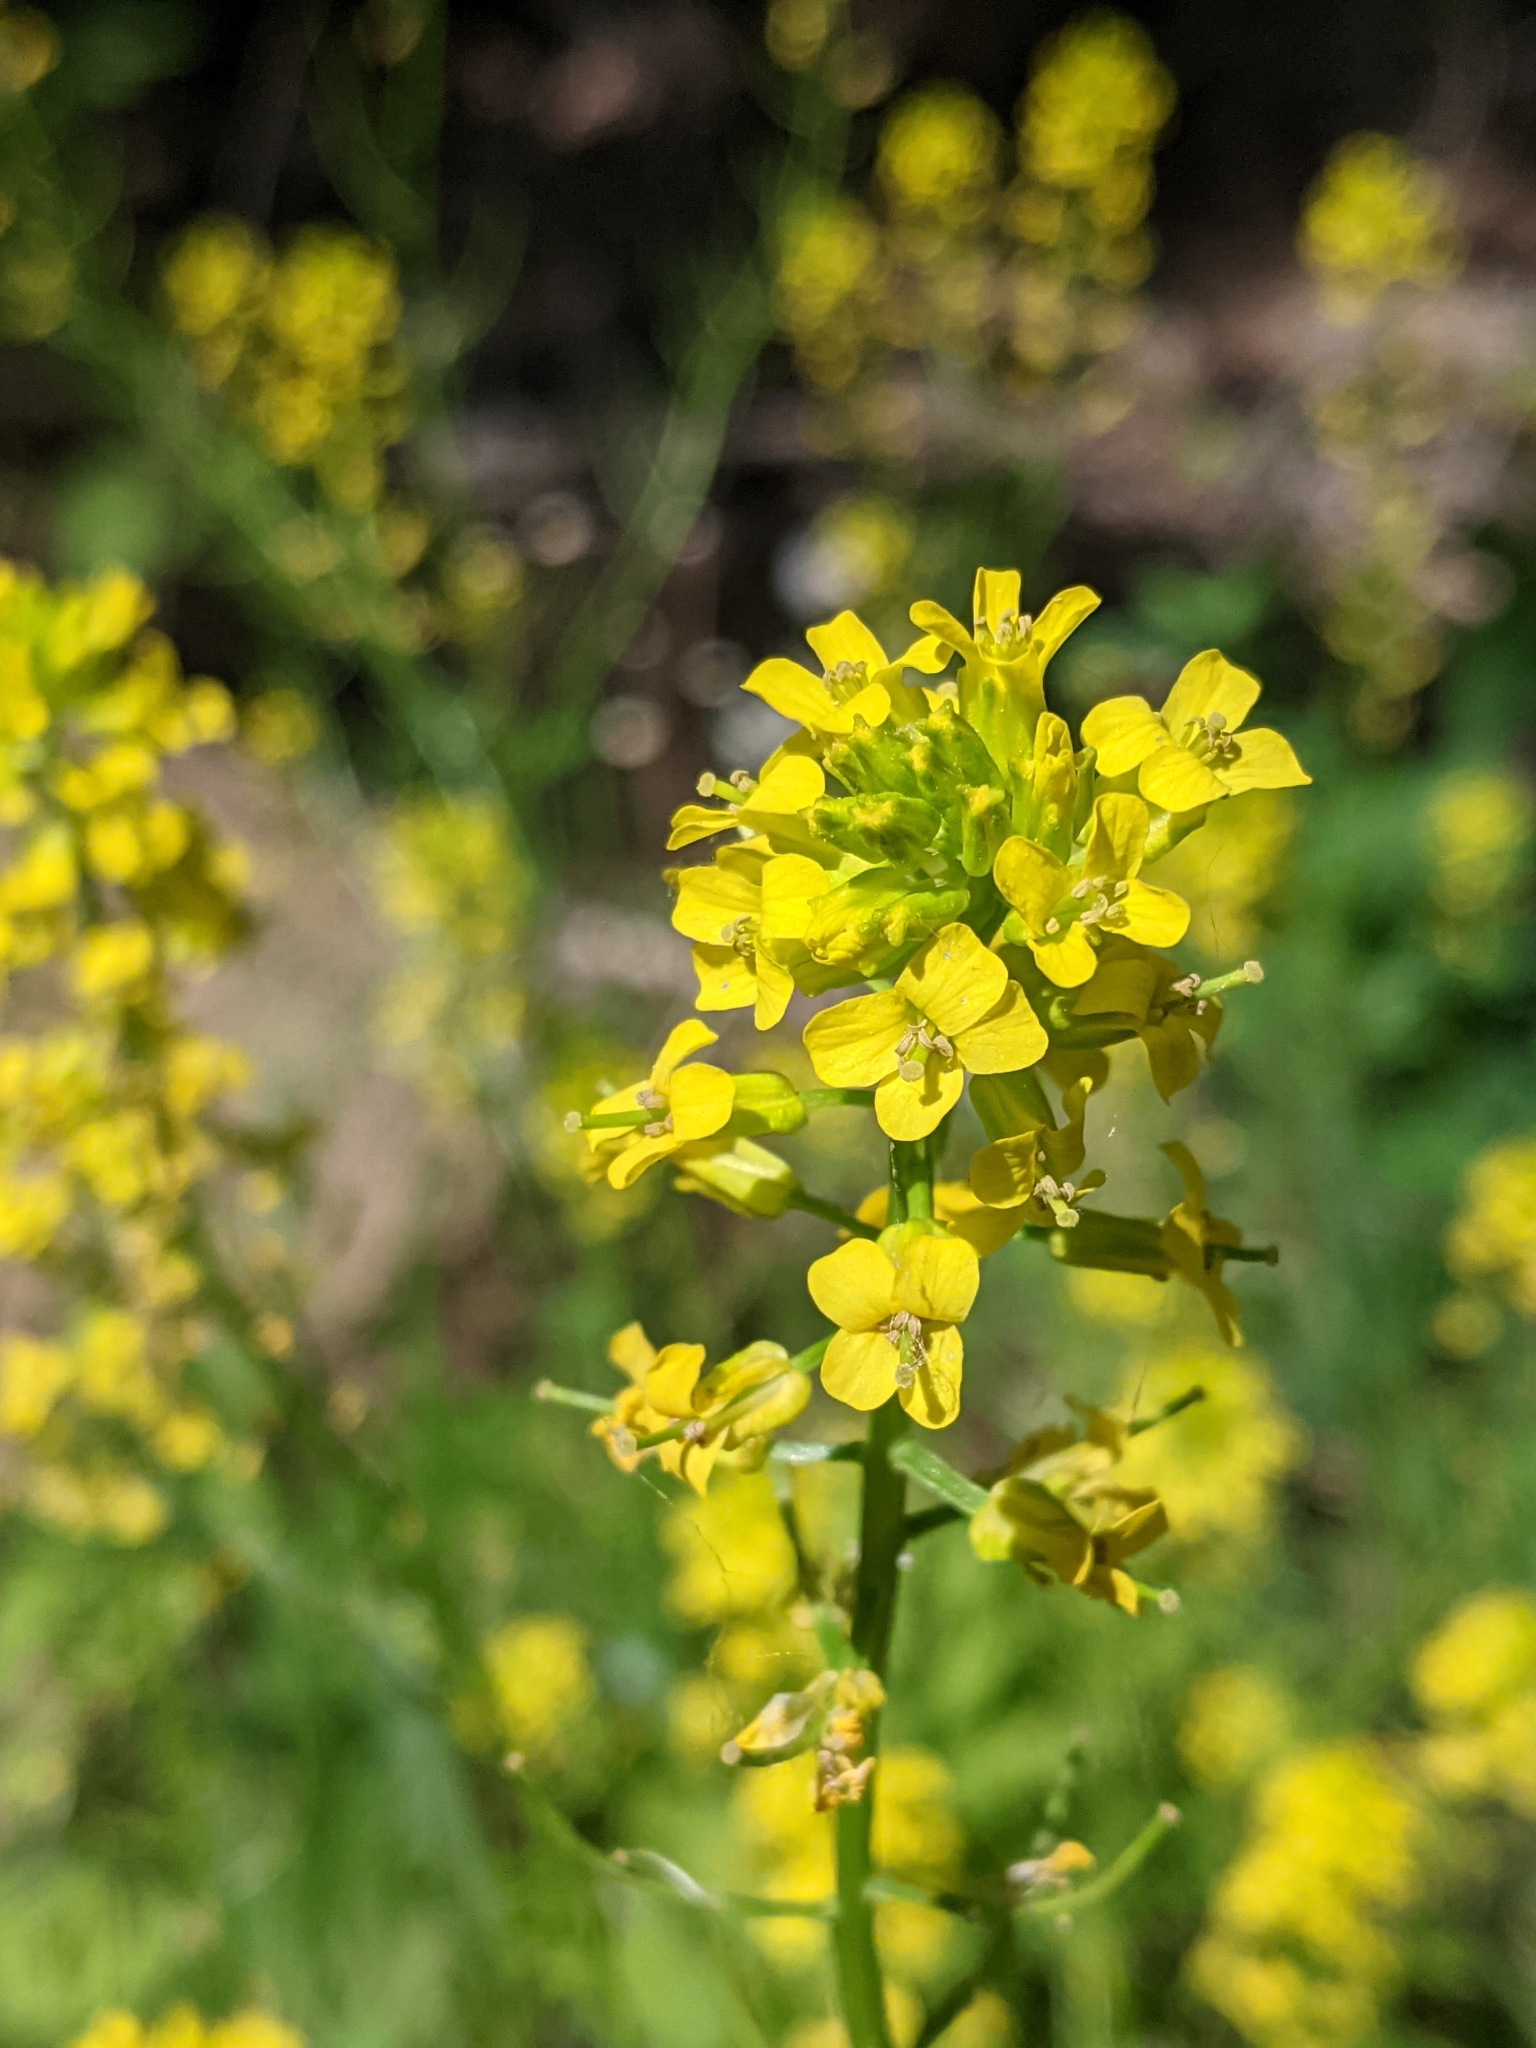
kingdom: Plantae
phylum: Tracheophyta
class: Magnoliopsida
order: Brassicales
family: Brassicaceae
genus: Barbarea
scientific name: Barbarea vulgaris
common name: Cressy-greens
